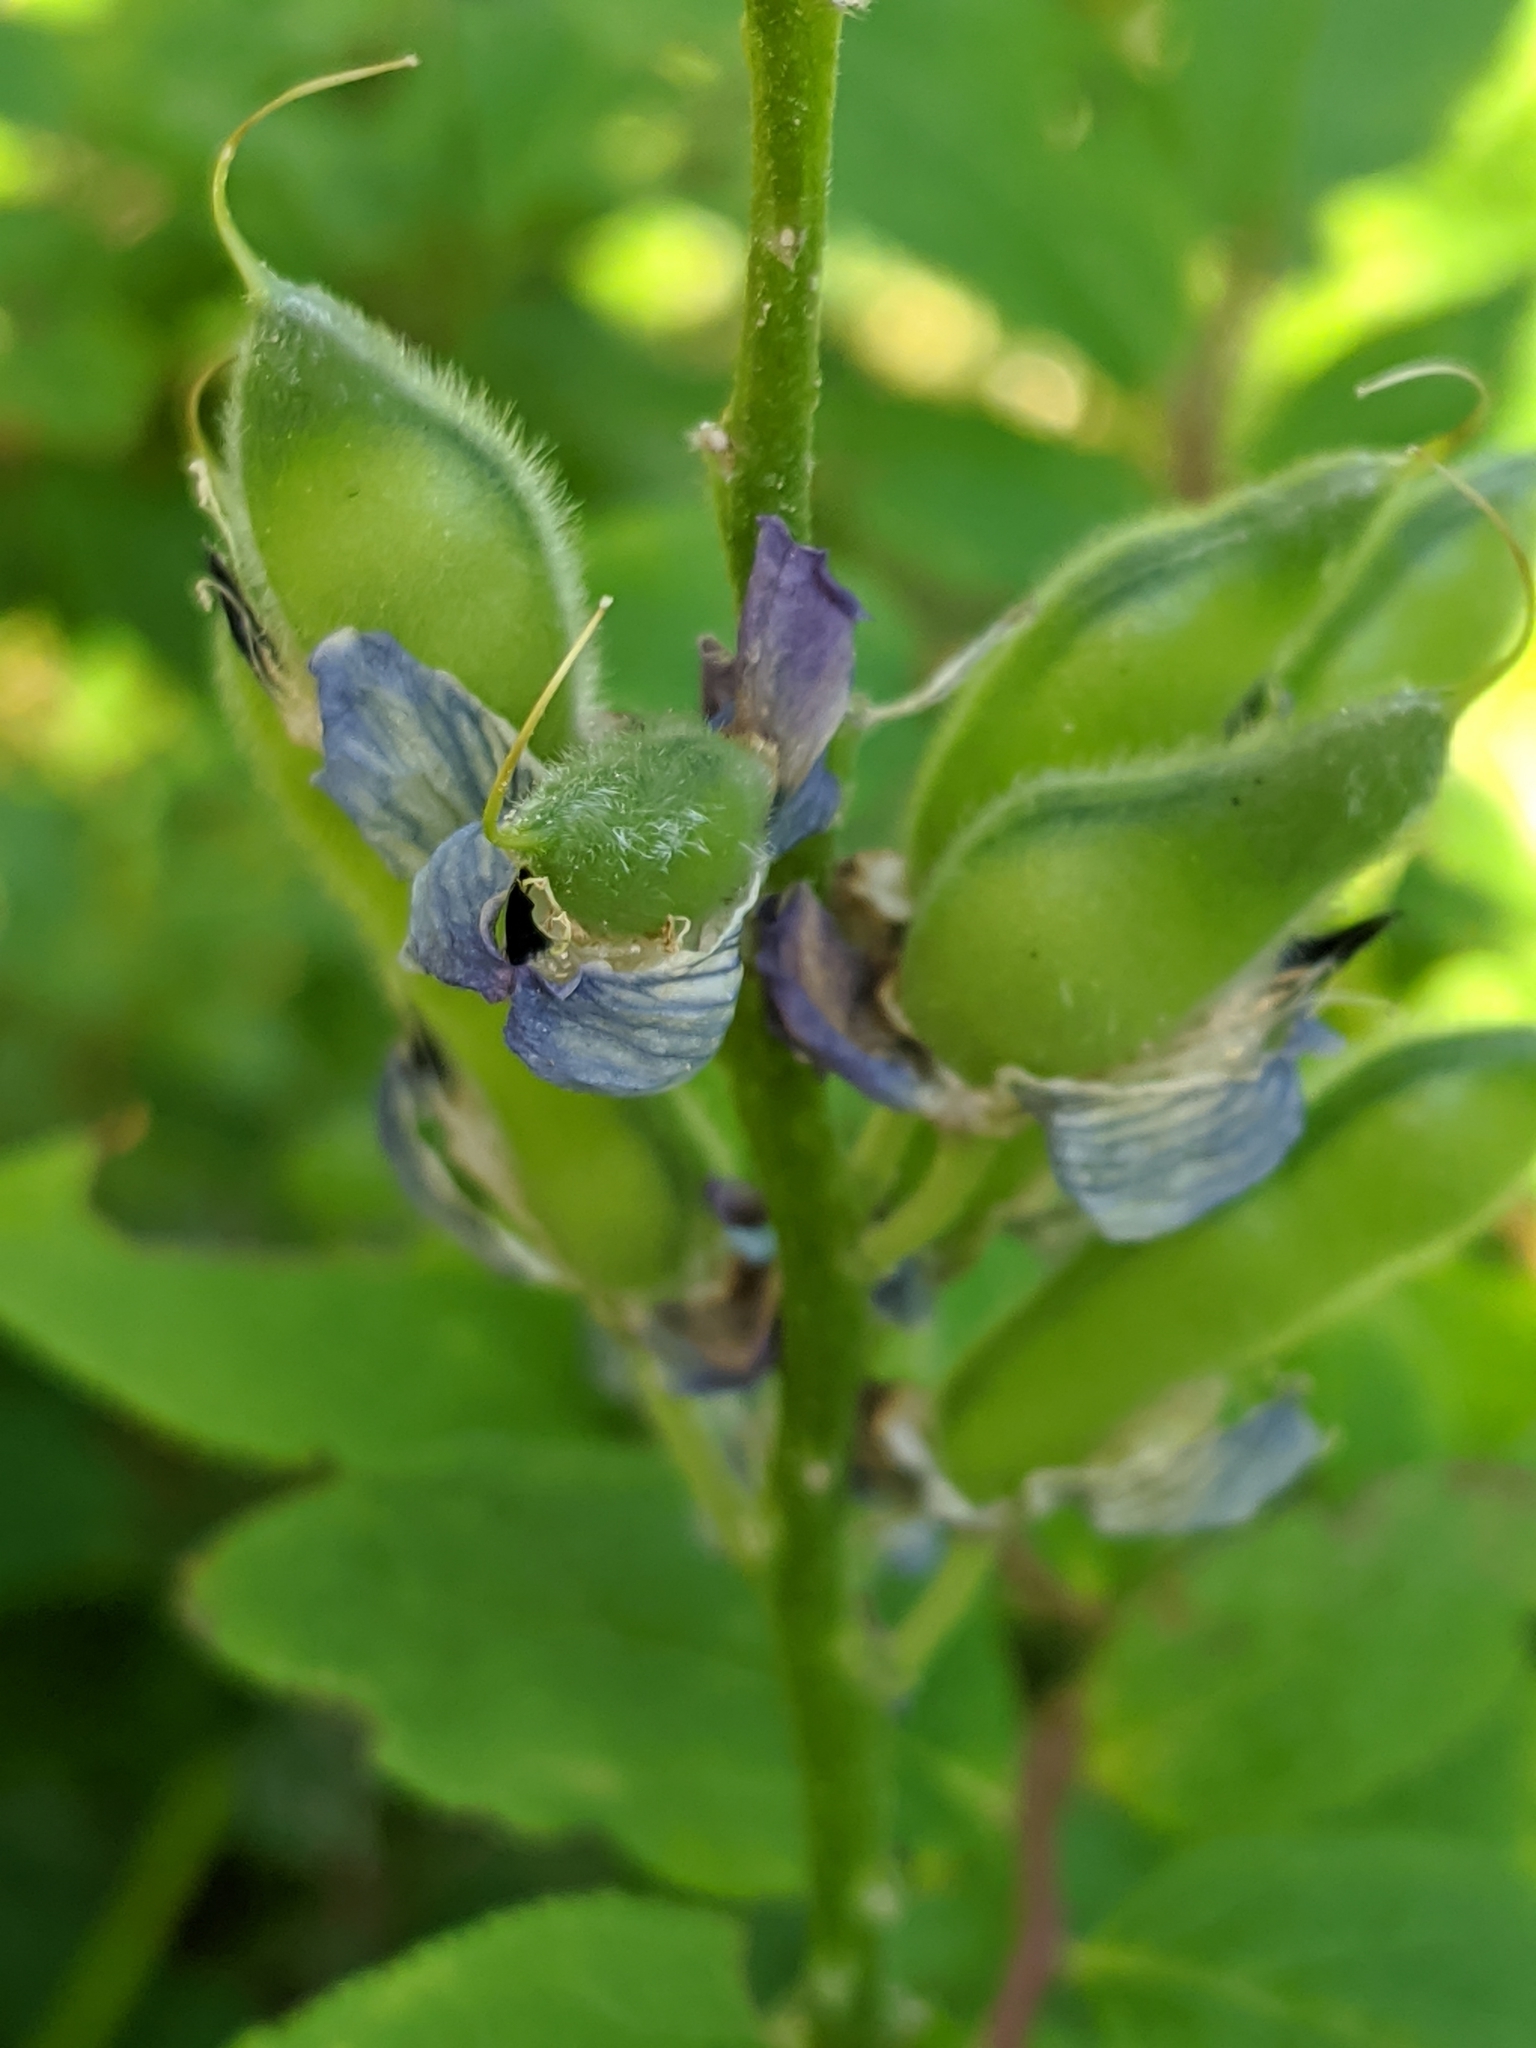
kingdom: Plantae
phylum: Tracheophyta
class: Magnoliopsida
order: Fabales
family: Fabaceae
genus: Lupinus
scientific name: Lupinus latifolius
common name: Broad-leaved lupine
